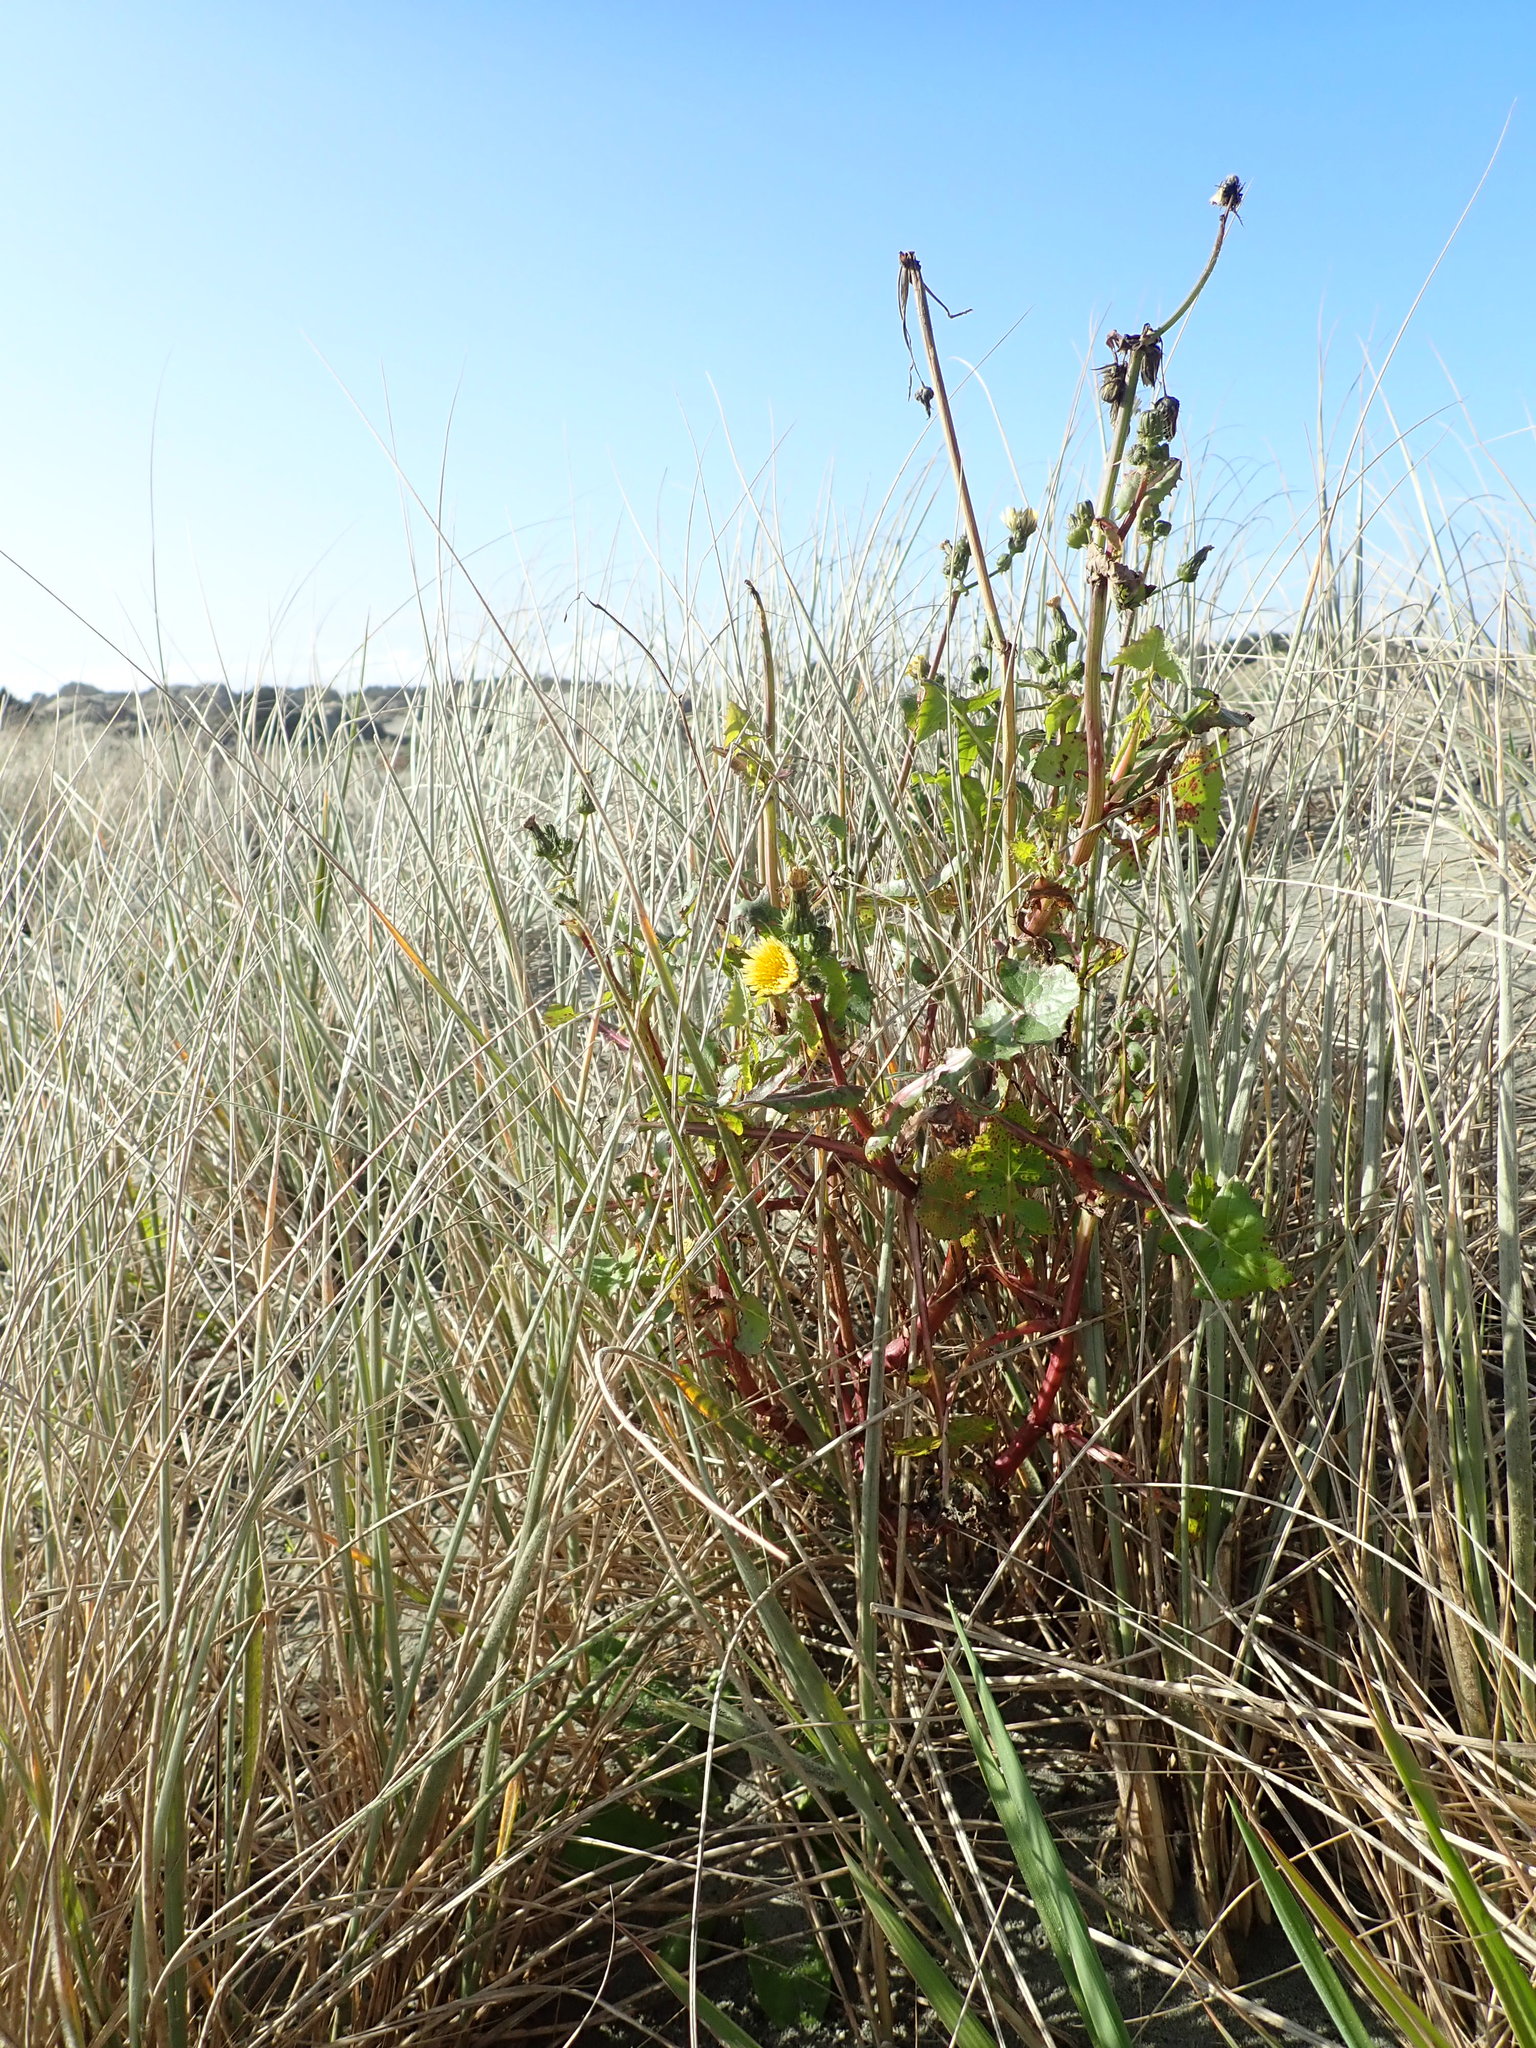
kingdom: Plantae
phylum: Tracheophyta
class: Magnoliopsida
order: Asterales
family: Asteraceae
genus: Sonchus
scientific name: Sonchus oleraceus
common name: Common sowthistle
